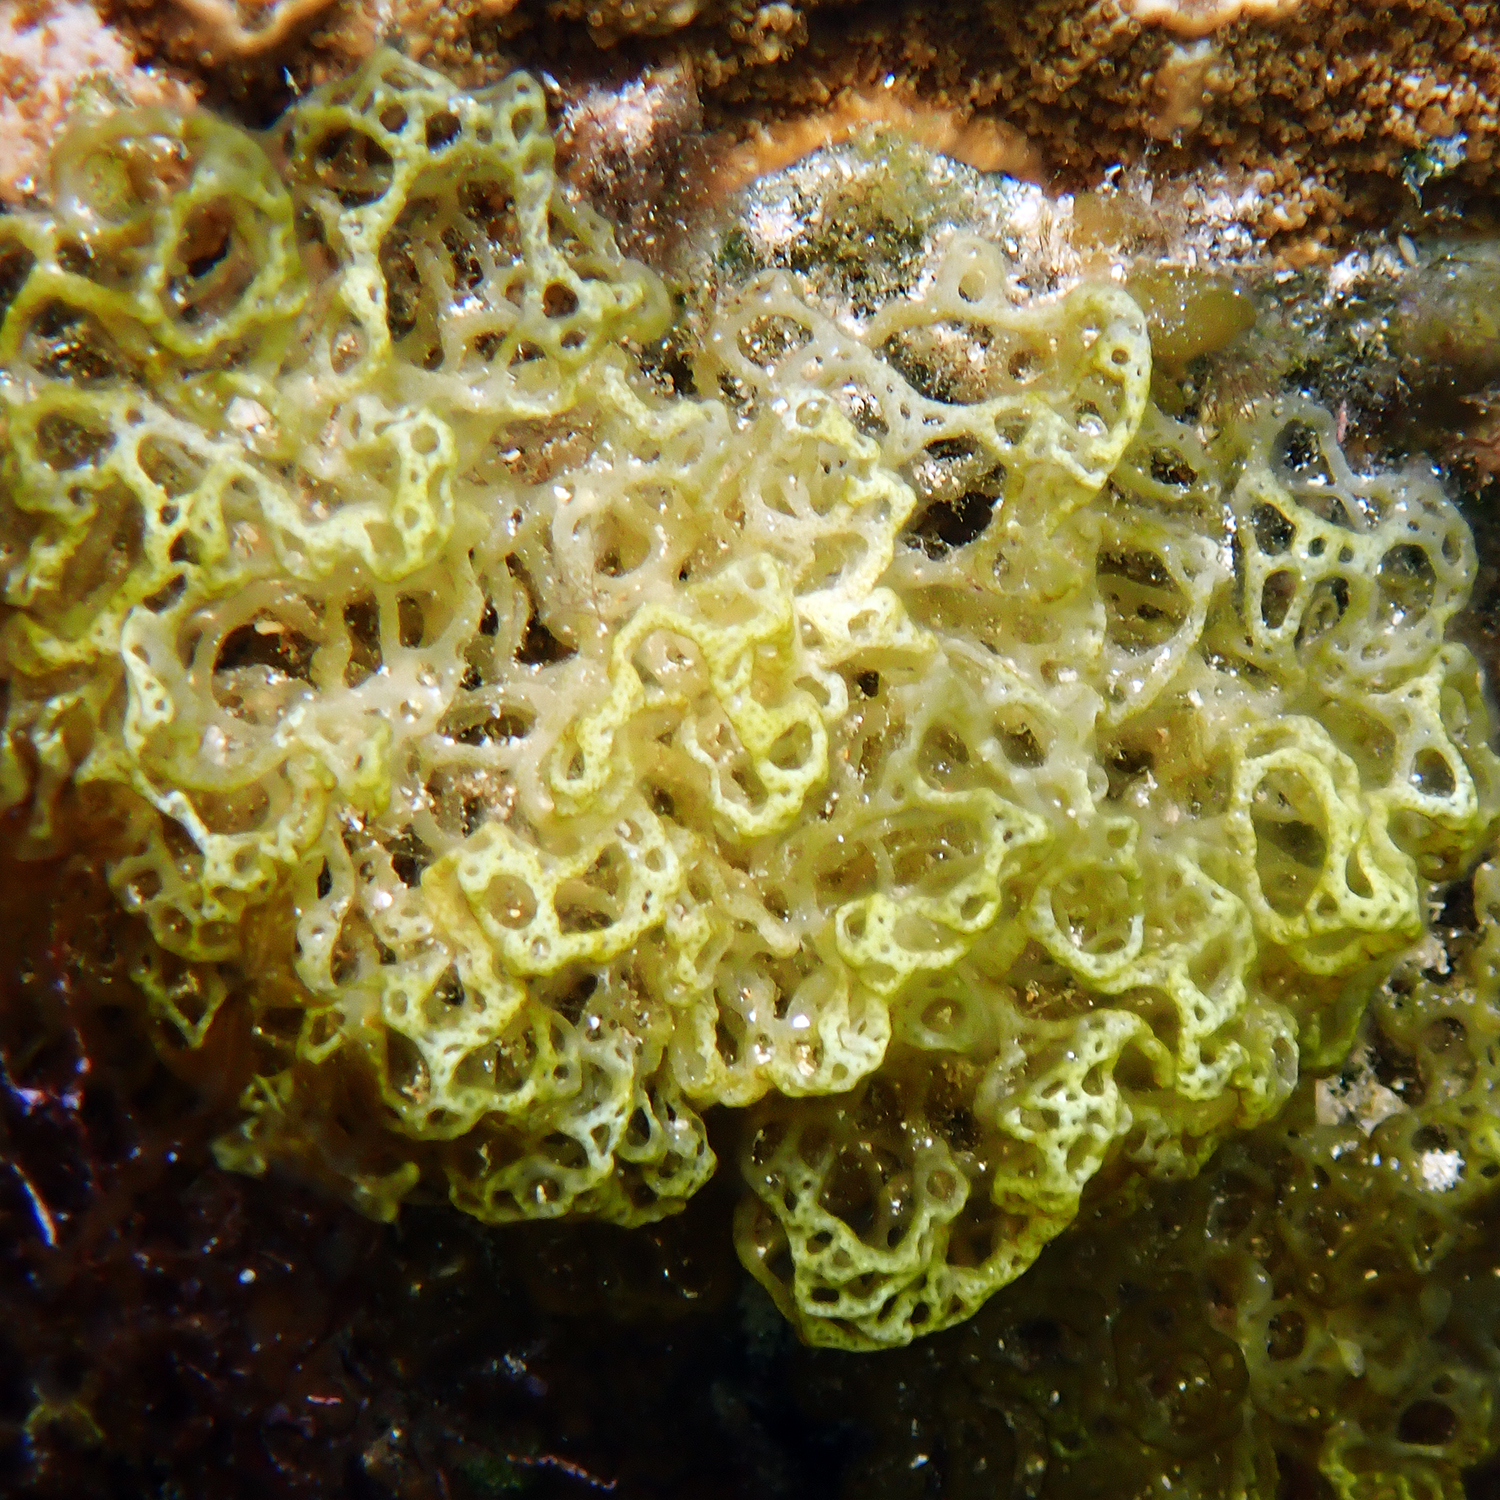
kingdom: Chromista
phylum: Ochrophyta
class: Phaeophyceae
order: Scytosiphonales
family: Scytosiphonaceae
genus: Hydroclathrus
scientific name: Hydroclathrus clathratus
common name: Swiss cheese algae
